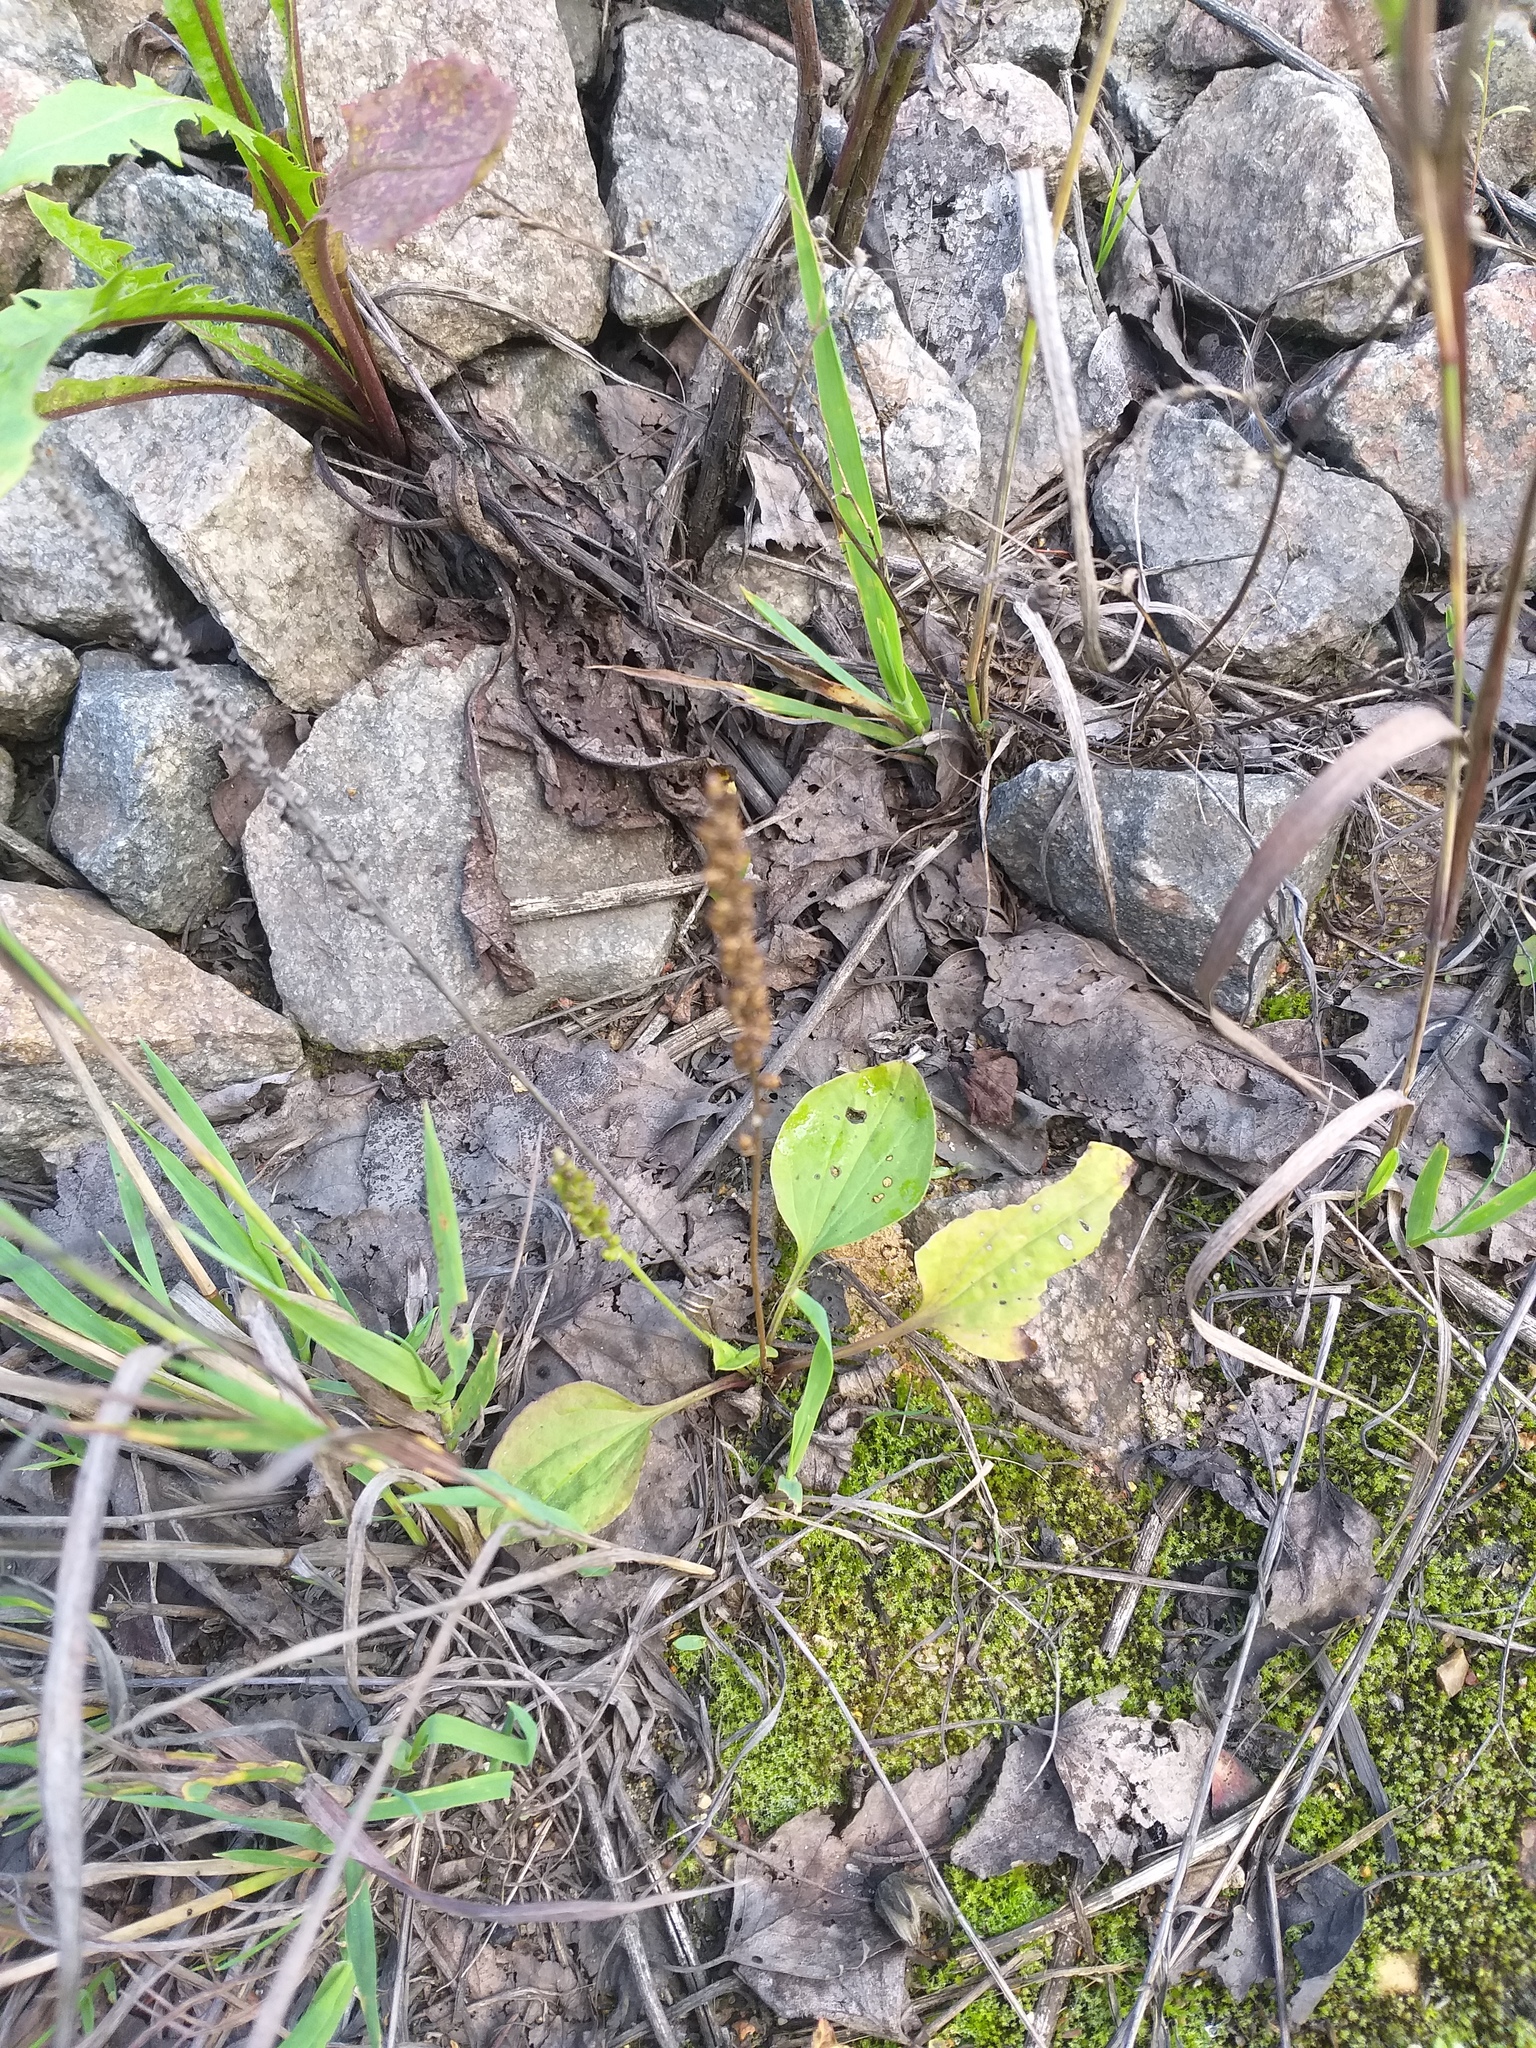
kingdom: Plantae
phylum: Tracheophyta
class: Magnoliopsida
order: Lamiales
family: Plantaginaceae
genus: Plantago
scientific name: Plantago major
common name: Common plantain
